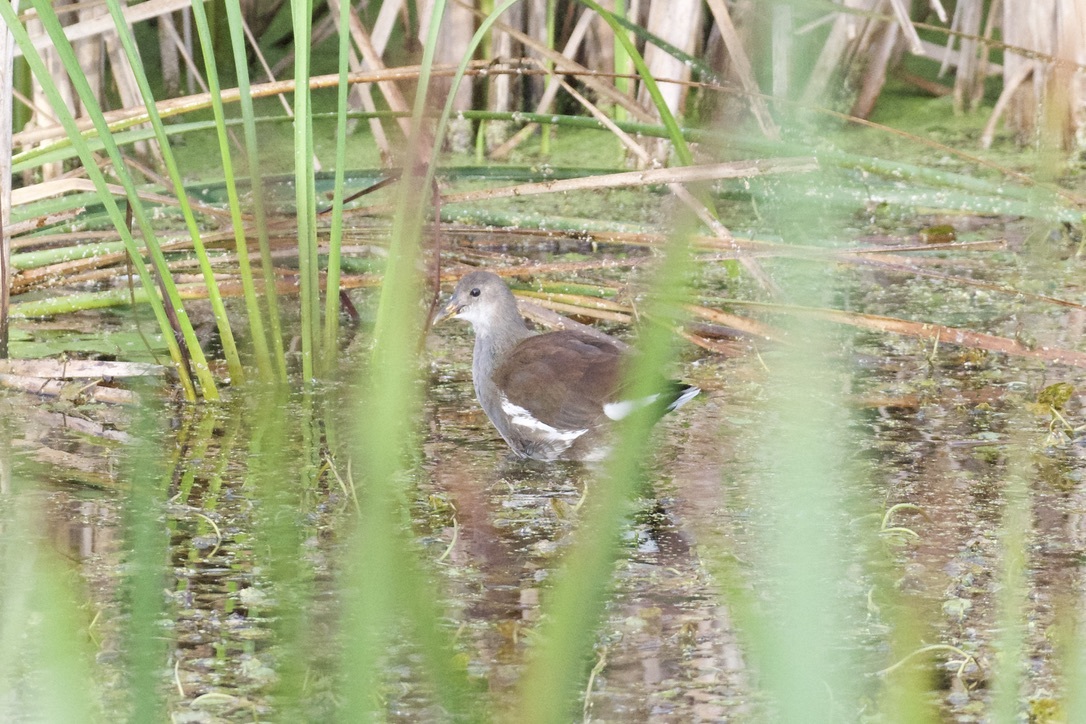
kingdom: Animalia
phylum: Chordata
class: Aves
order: Gruiformes
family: Rallidae
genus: Gallinula
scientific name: Gallinula chloropus
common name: Common moorhen
